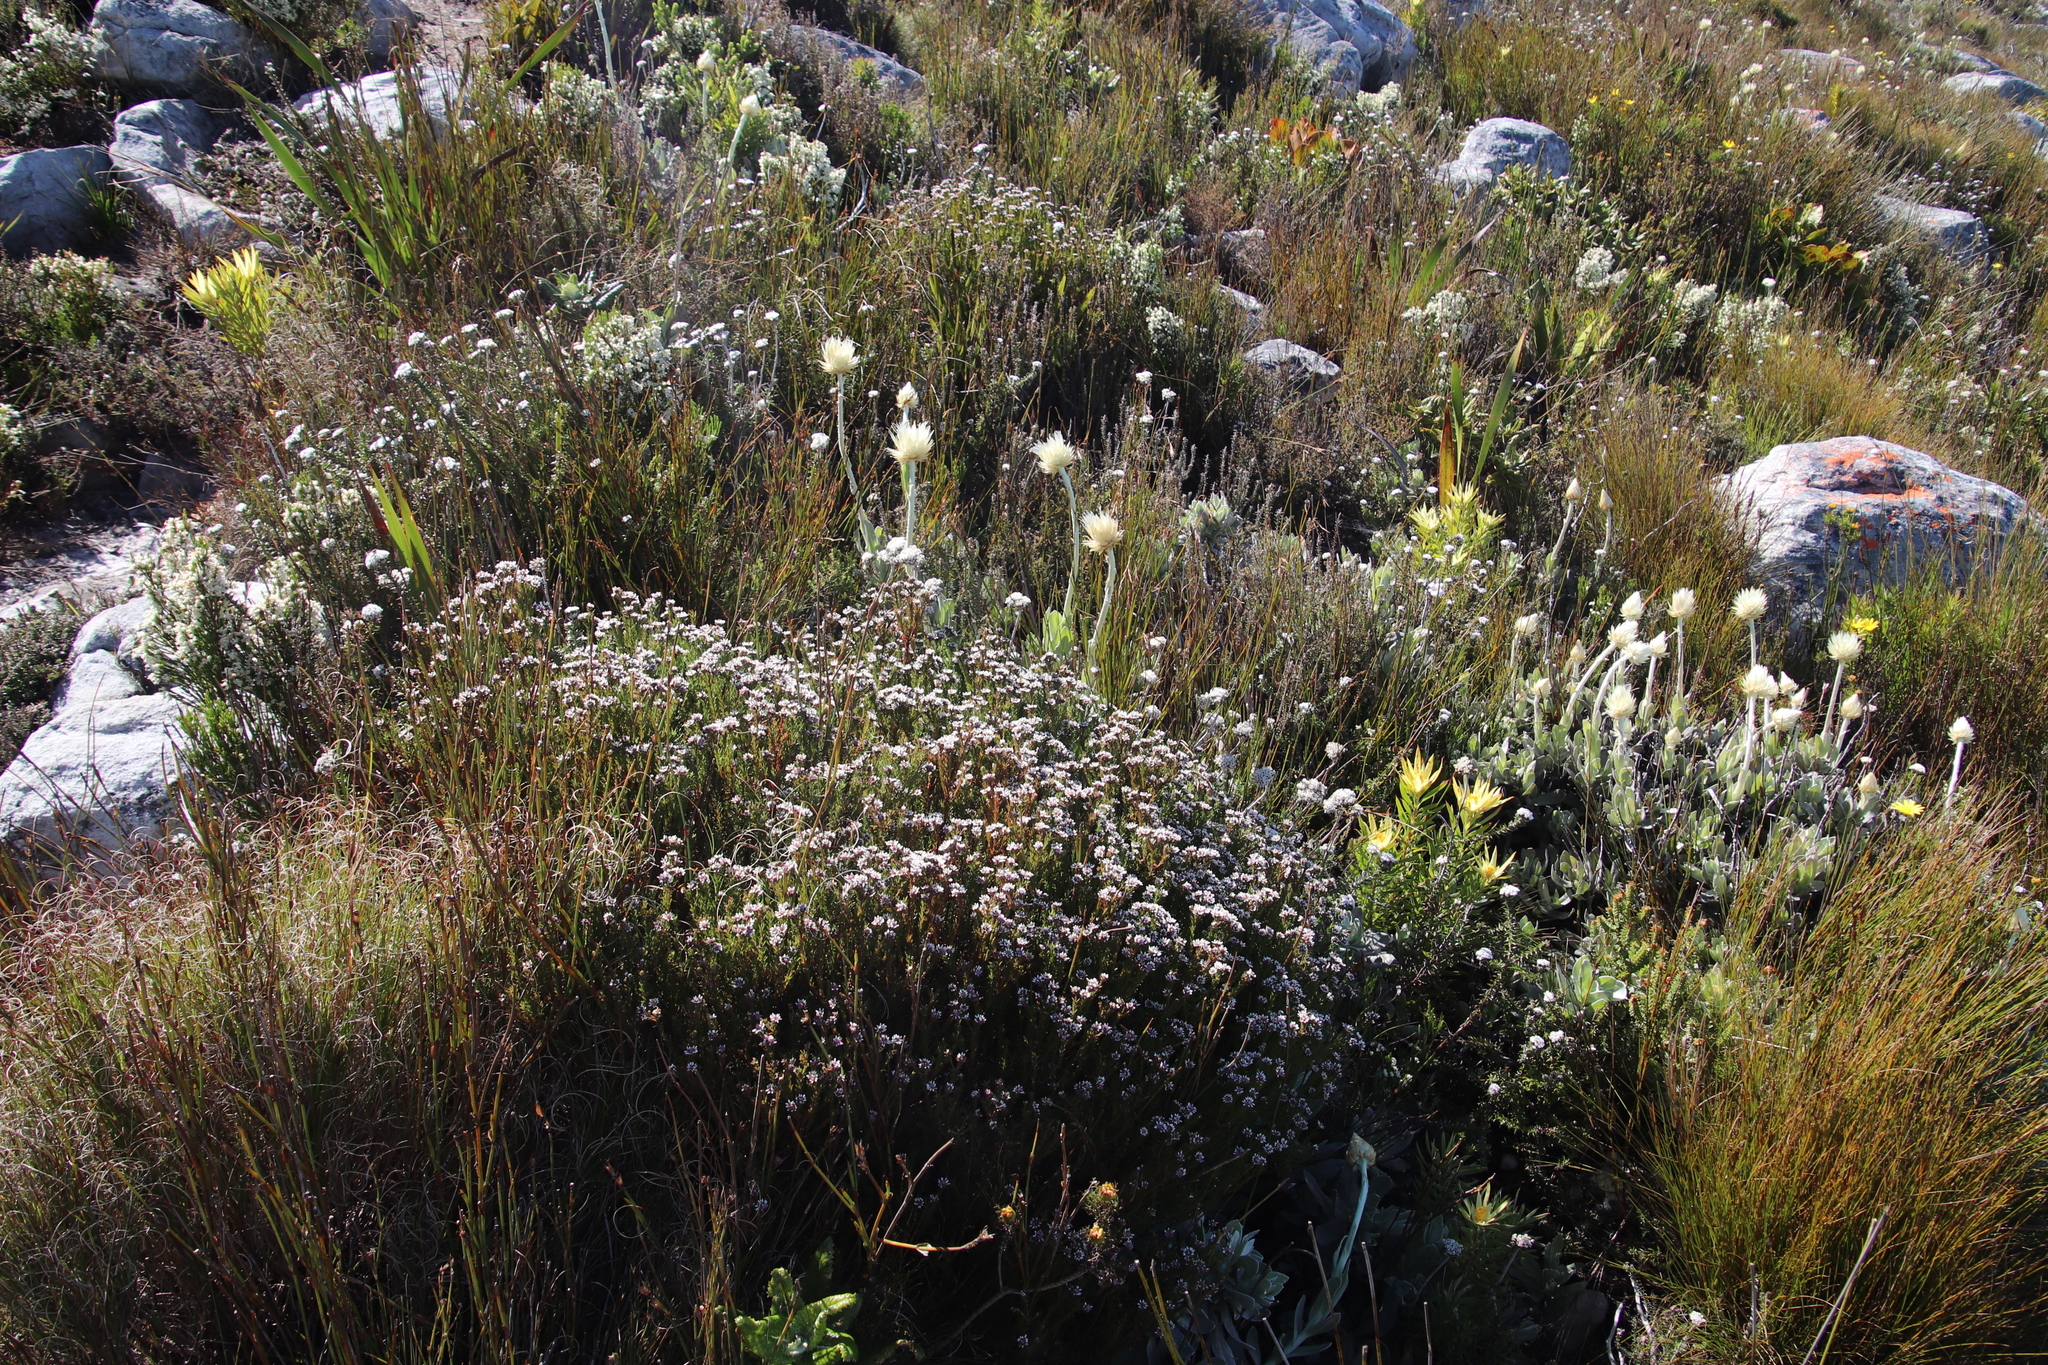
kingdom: Plantae
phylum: Tracheophyta
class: Magnoliopsida
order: Bruniales
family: Bruniaceae
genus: Staavia
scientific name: Staavia radiata
